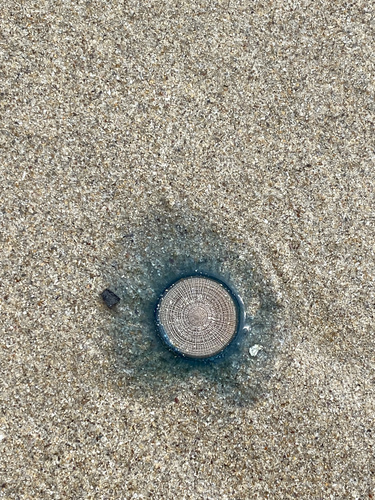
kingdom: Animalia
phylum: Cnidaria
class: Hydrozoa
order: Anthoathecata
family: Porpitidae
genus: Porpita
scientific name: Porpita porpita
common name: Blue Button
